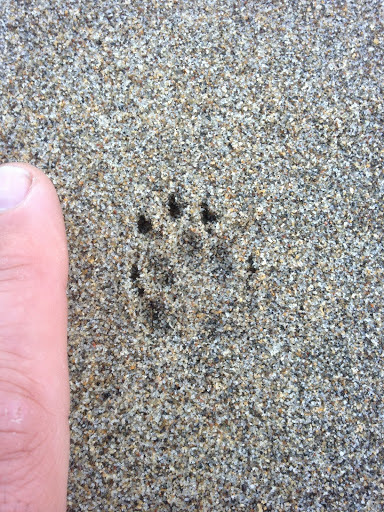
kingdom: Animalia
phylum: Chordata
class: Mammalia
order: Carnivora
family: Mephitidae
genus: Mephitis
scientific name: Mephitis mephitis
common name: Striped skunk
